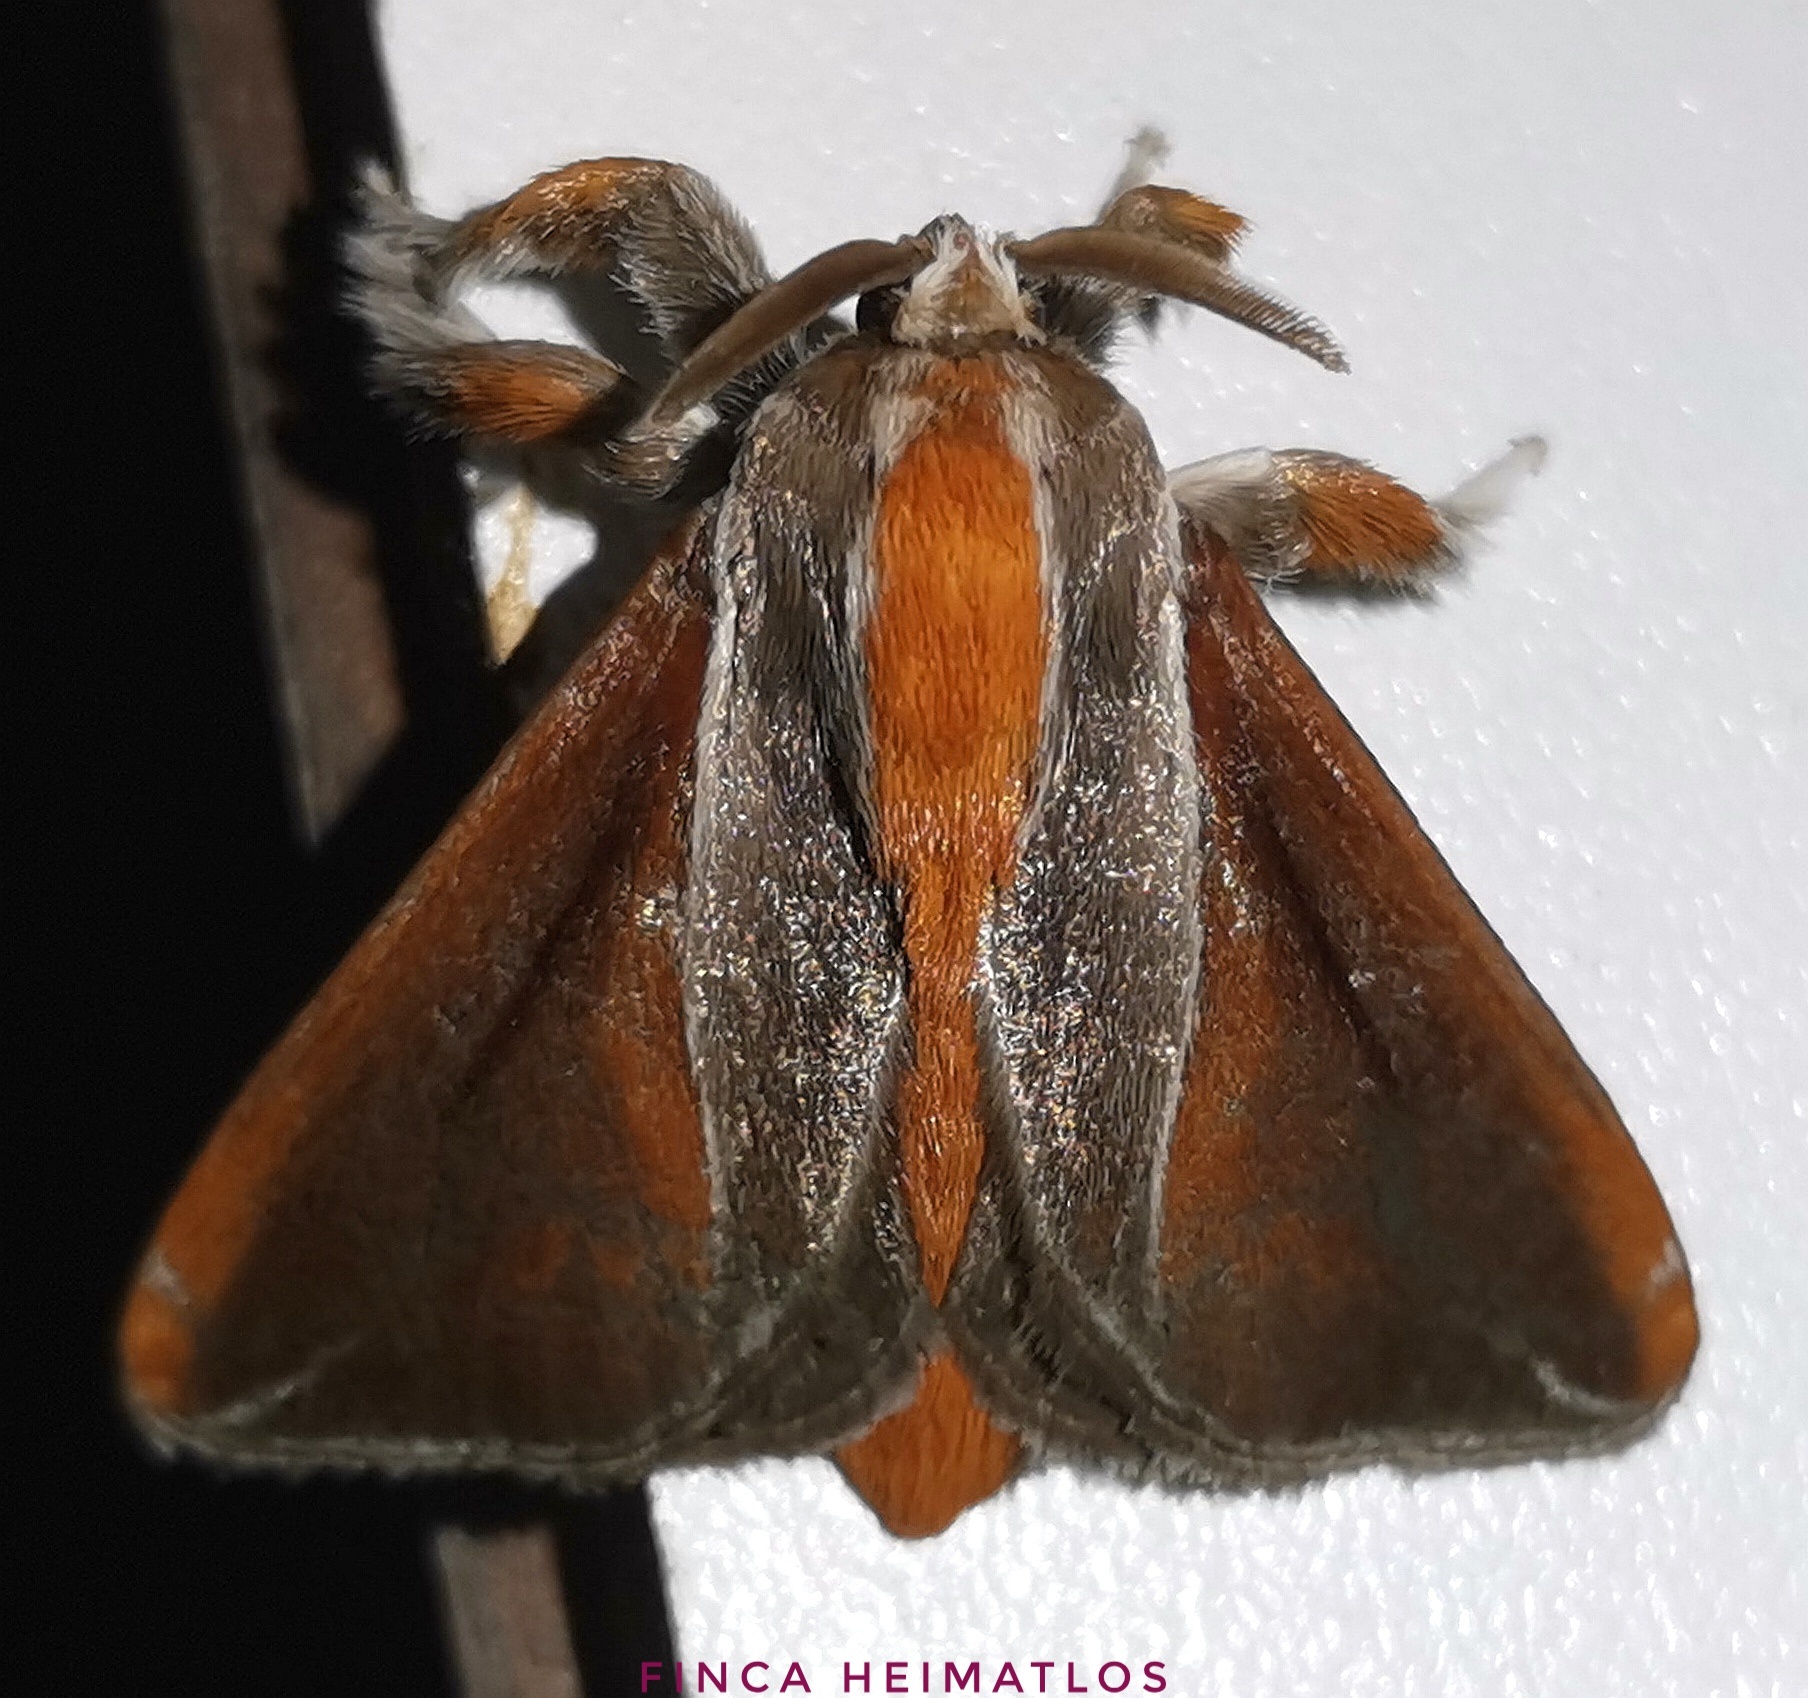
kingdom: Animalia
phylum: Arthropoda
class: Insecta
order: Lepidoptera
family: Limacodidae
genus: Epiperola
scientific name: Epiperola grandiosa
